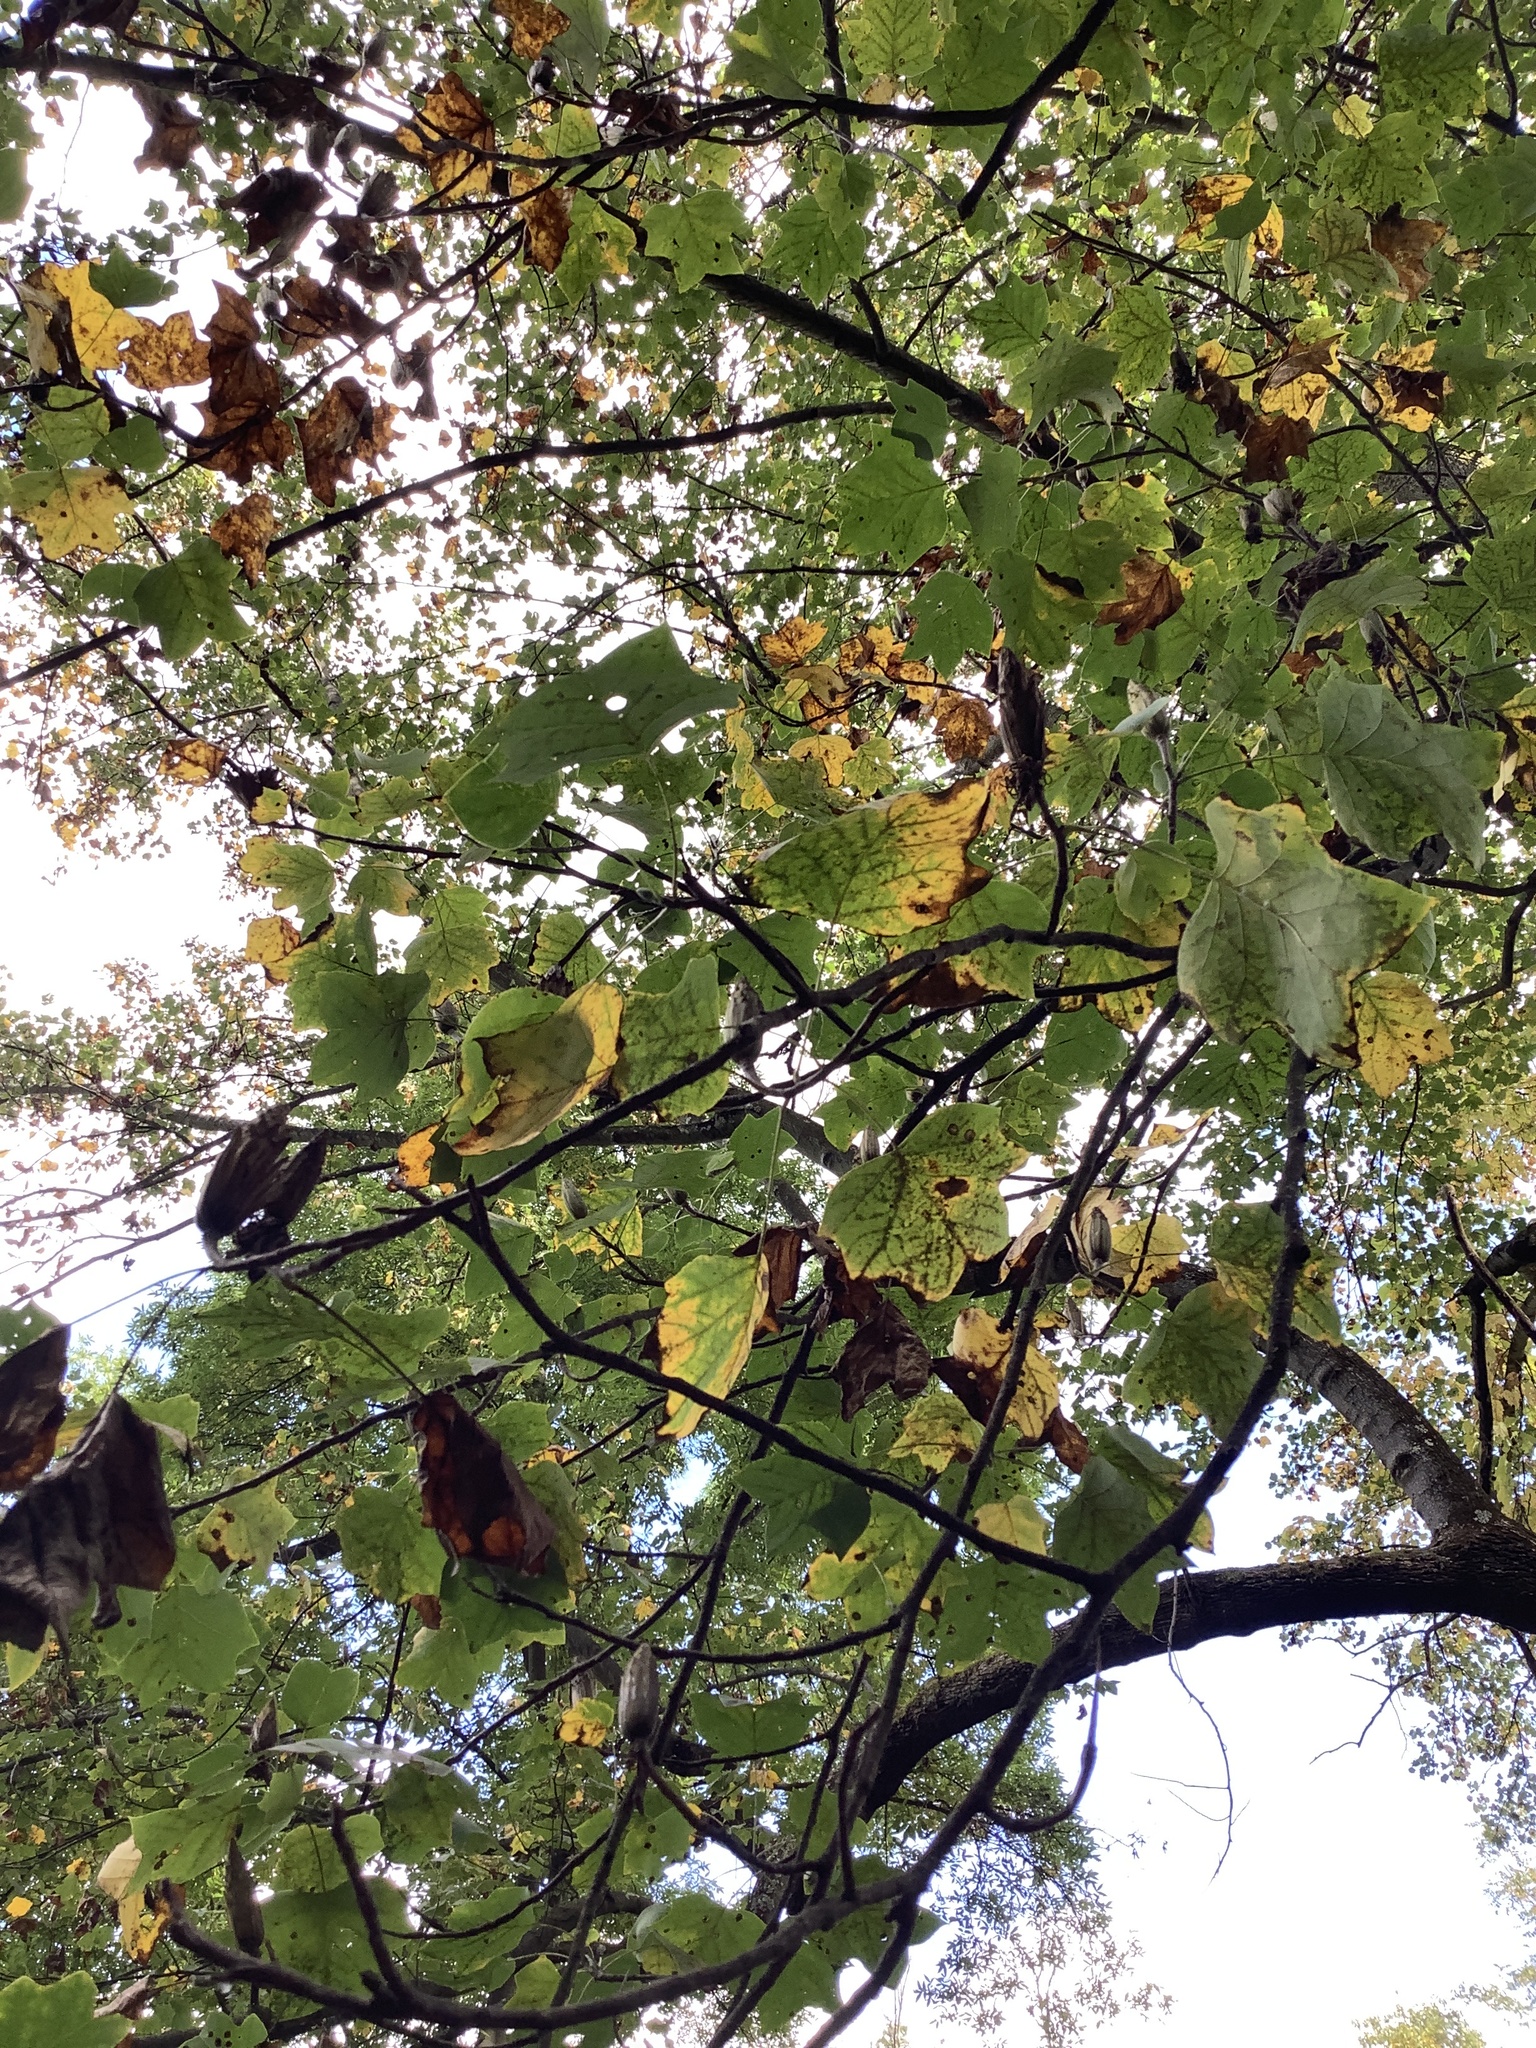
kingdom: Plantae
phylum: Tracheophyta
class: Magnoliopsida
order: Magnoliales
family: Magnoliaceae
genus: Liriodendron
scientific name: Liriodendron tulipifera
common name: Tulip tree
